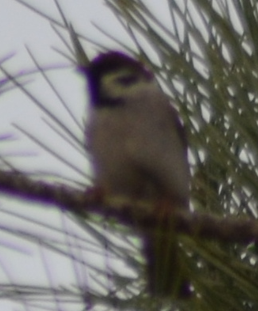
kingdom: Animalia
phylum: Chordata
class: Aves
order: Passeriformes
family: Passeridae
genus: Passer
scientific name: Passer montanus
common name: Eurasian tree sparrow
